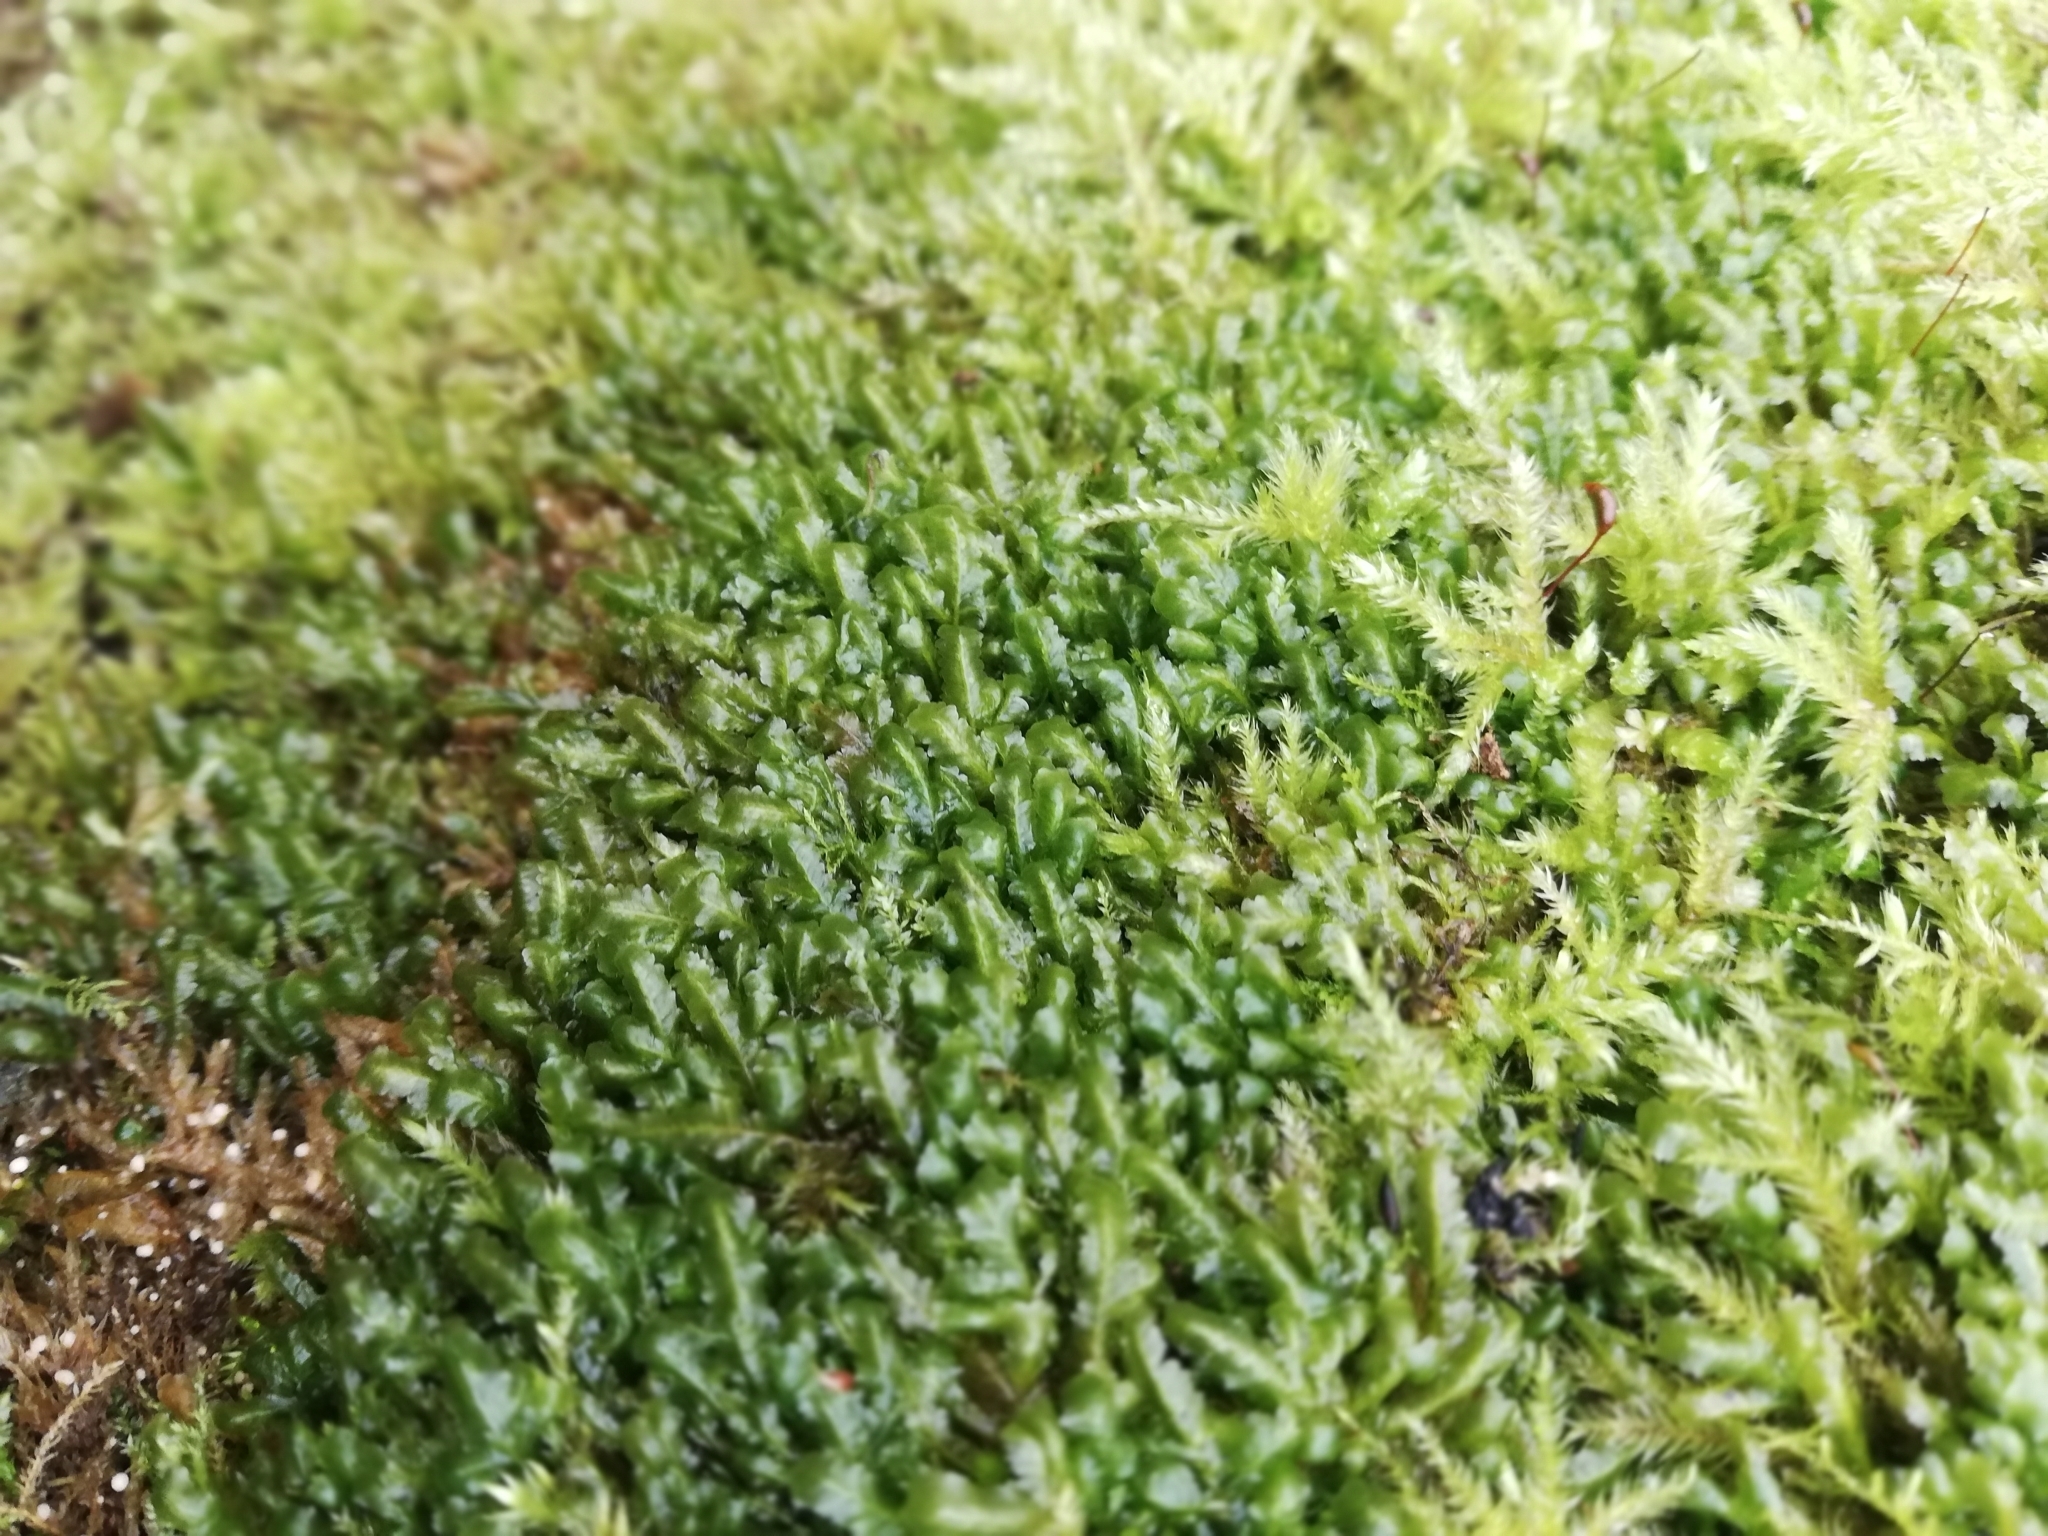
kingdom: Plantae
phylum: Bryophyta
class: Bryopsida
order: Hypnales
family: Neckeraceae
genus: Homalia
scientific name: Homalia trichomanoides
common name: Lime homalia moss
